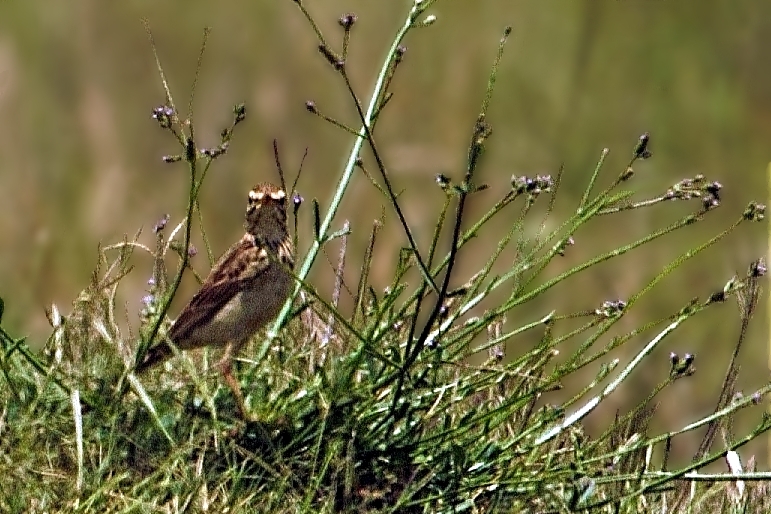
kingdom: Animalia
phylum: Chordata
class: Aves
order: Passeriformes
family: Motacillidae
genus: Anthus
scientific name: Anthus cinnamomeus
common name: African pipit
